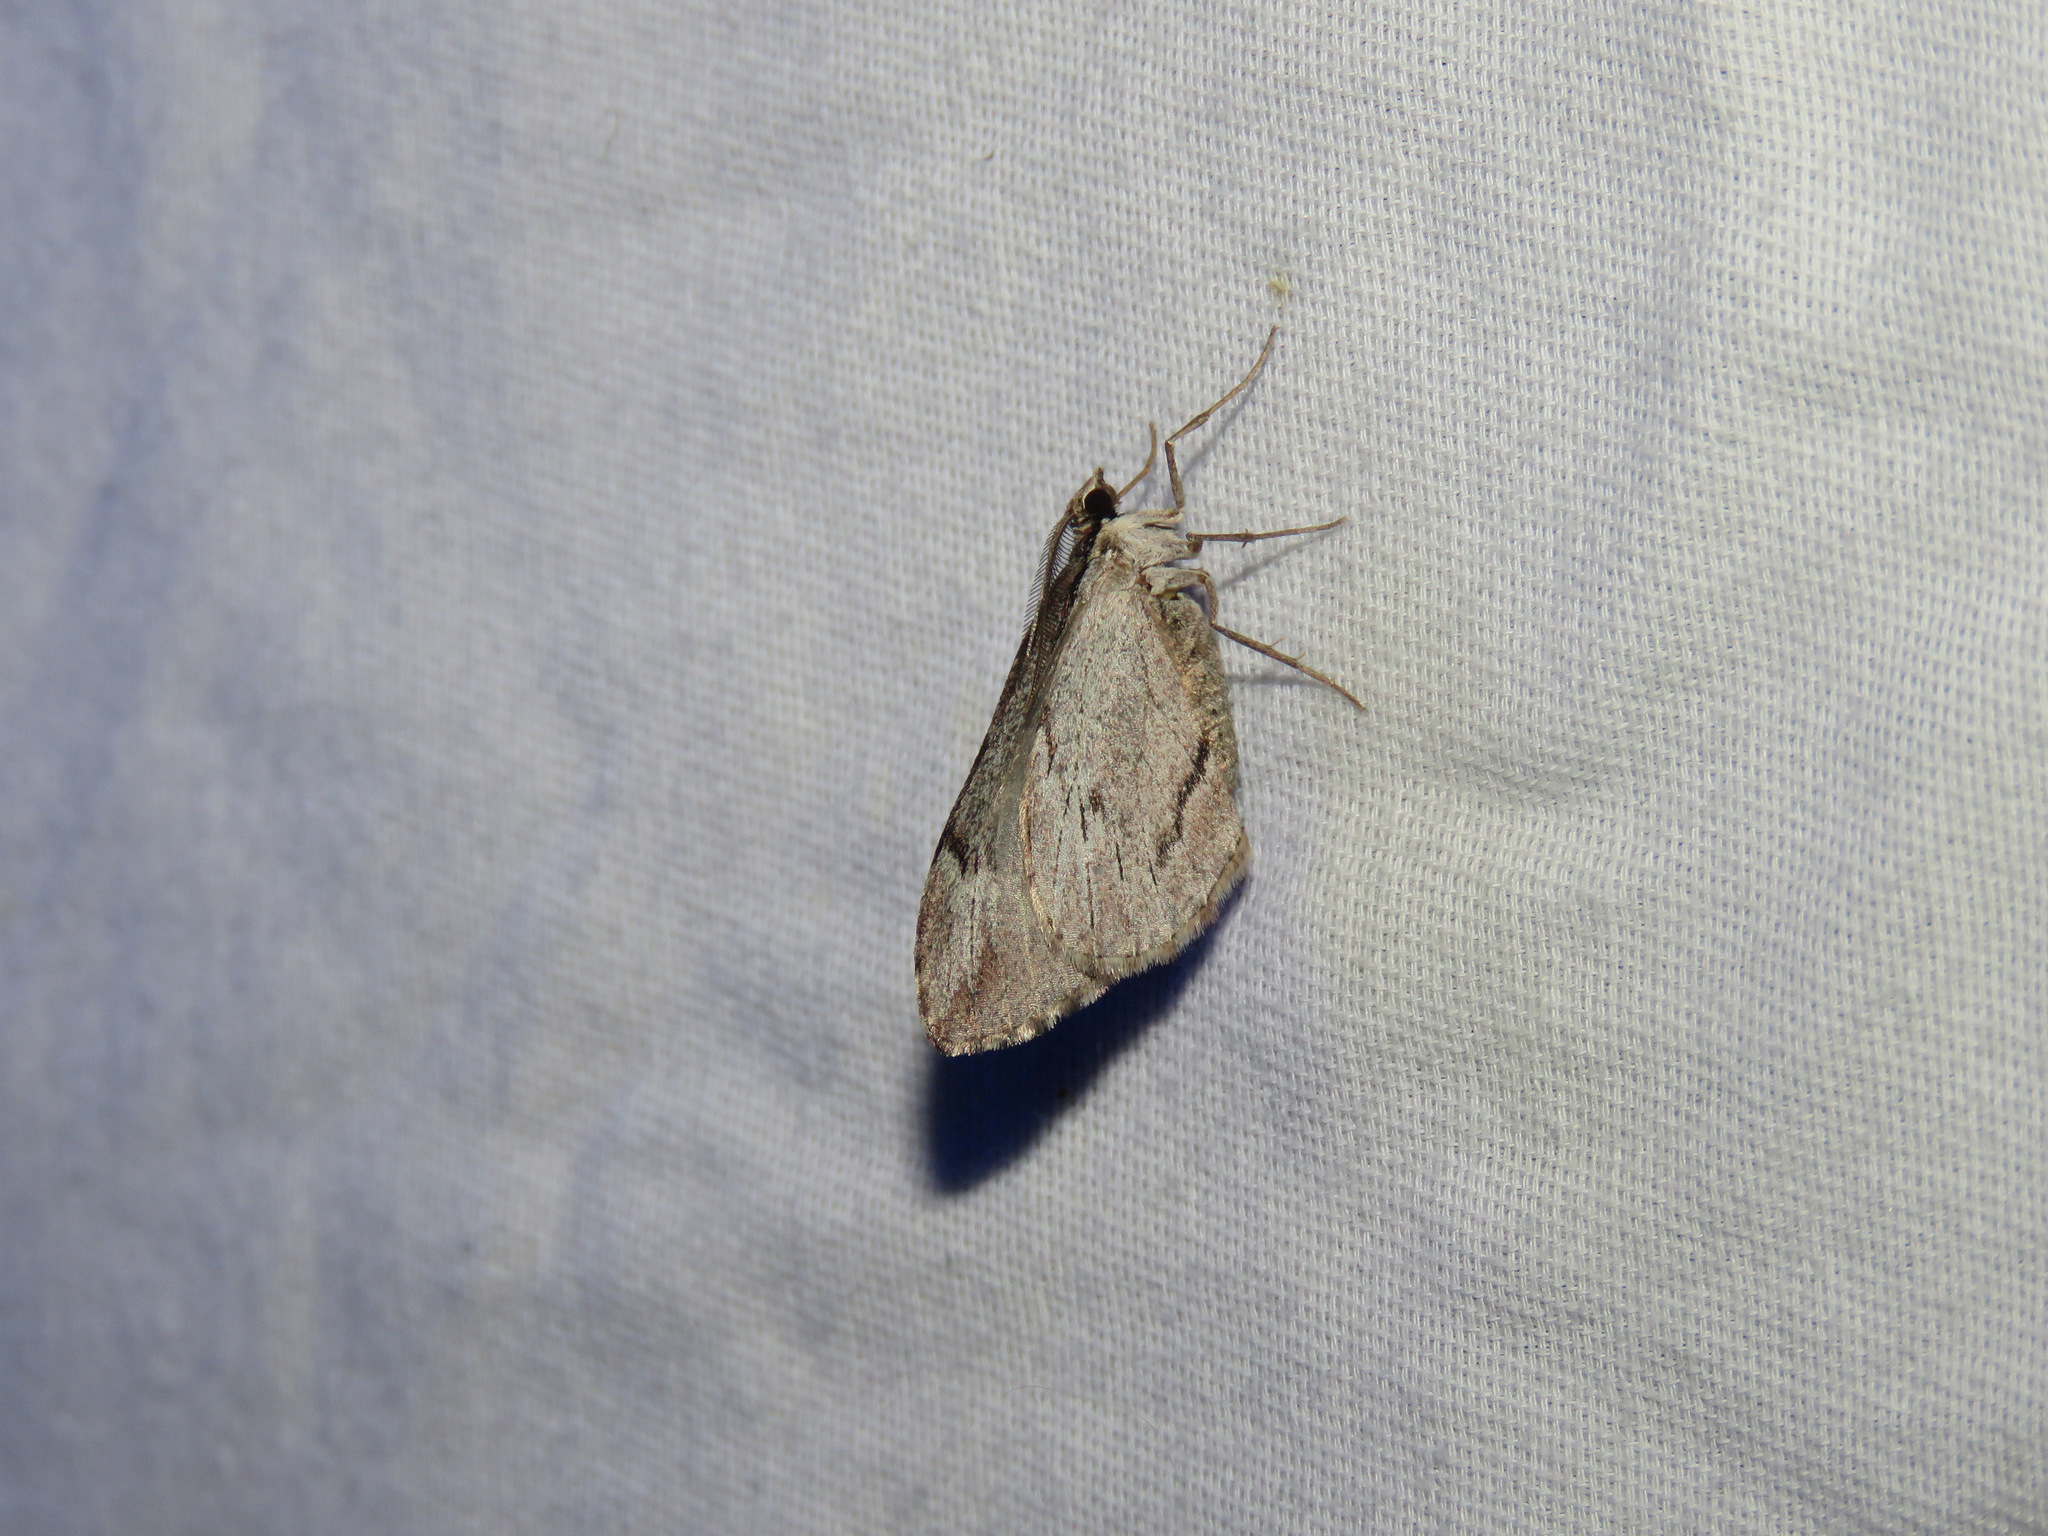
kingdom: Animalia
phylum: Arthropoda
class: Insecta
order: Lepidoptera
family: Geometridae
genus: Stamnoctenis
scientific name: Stamnoctenis pearsalli
